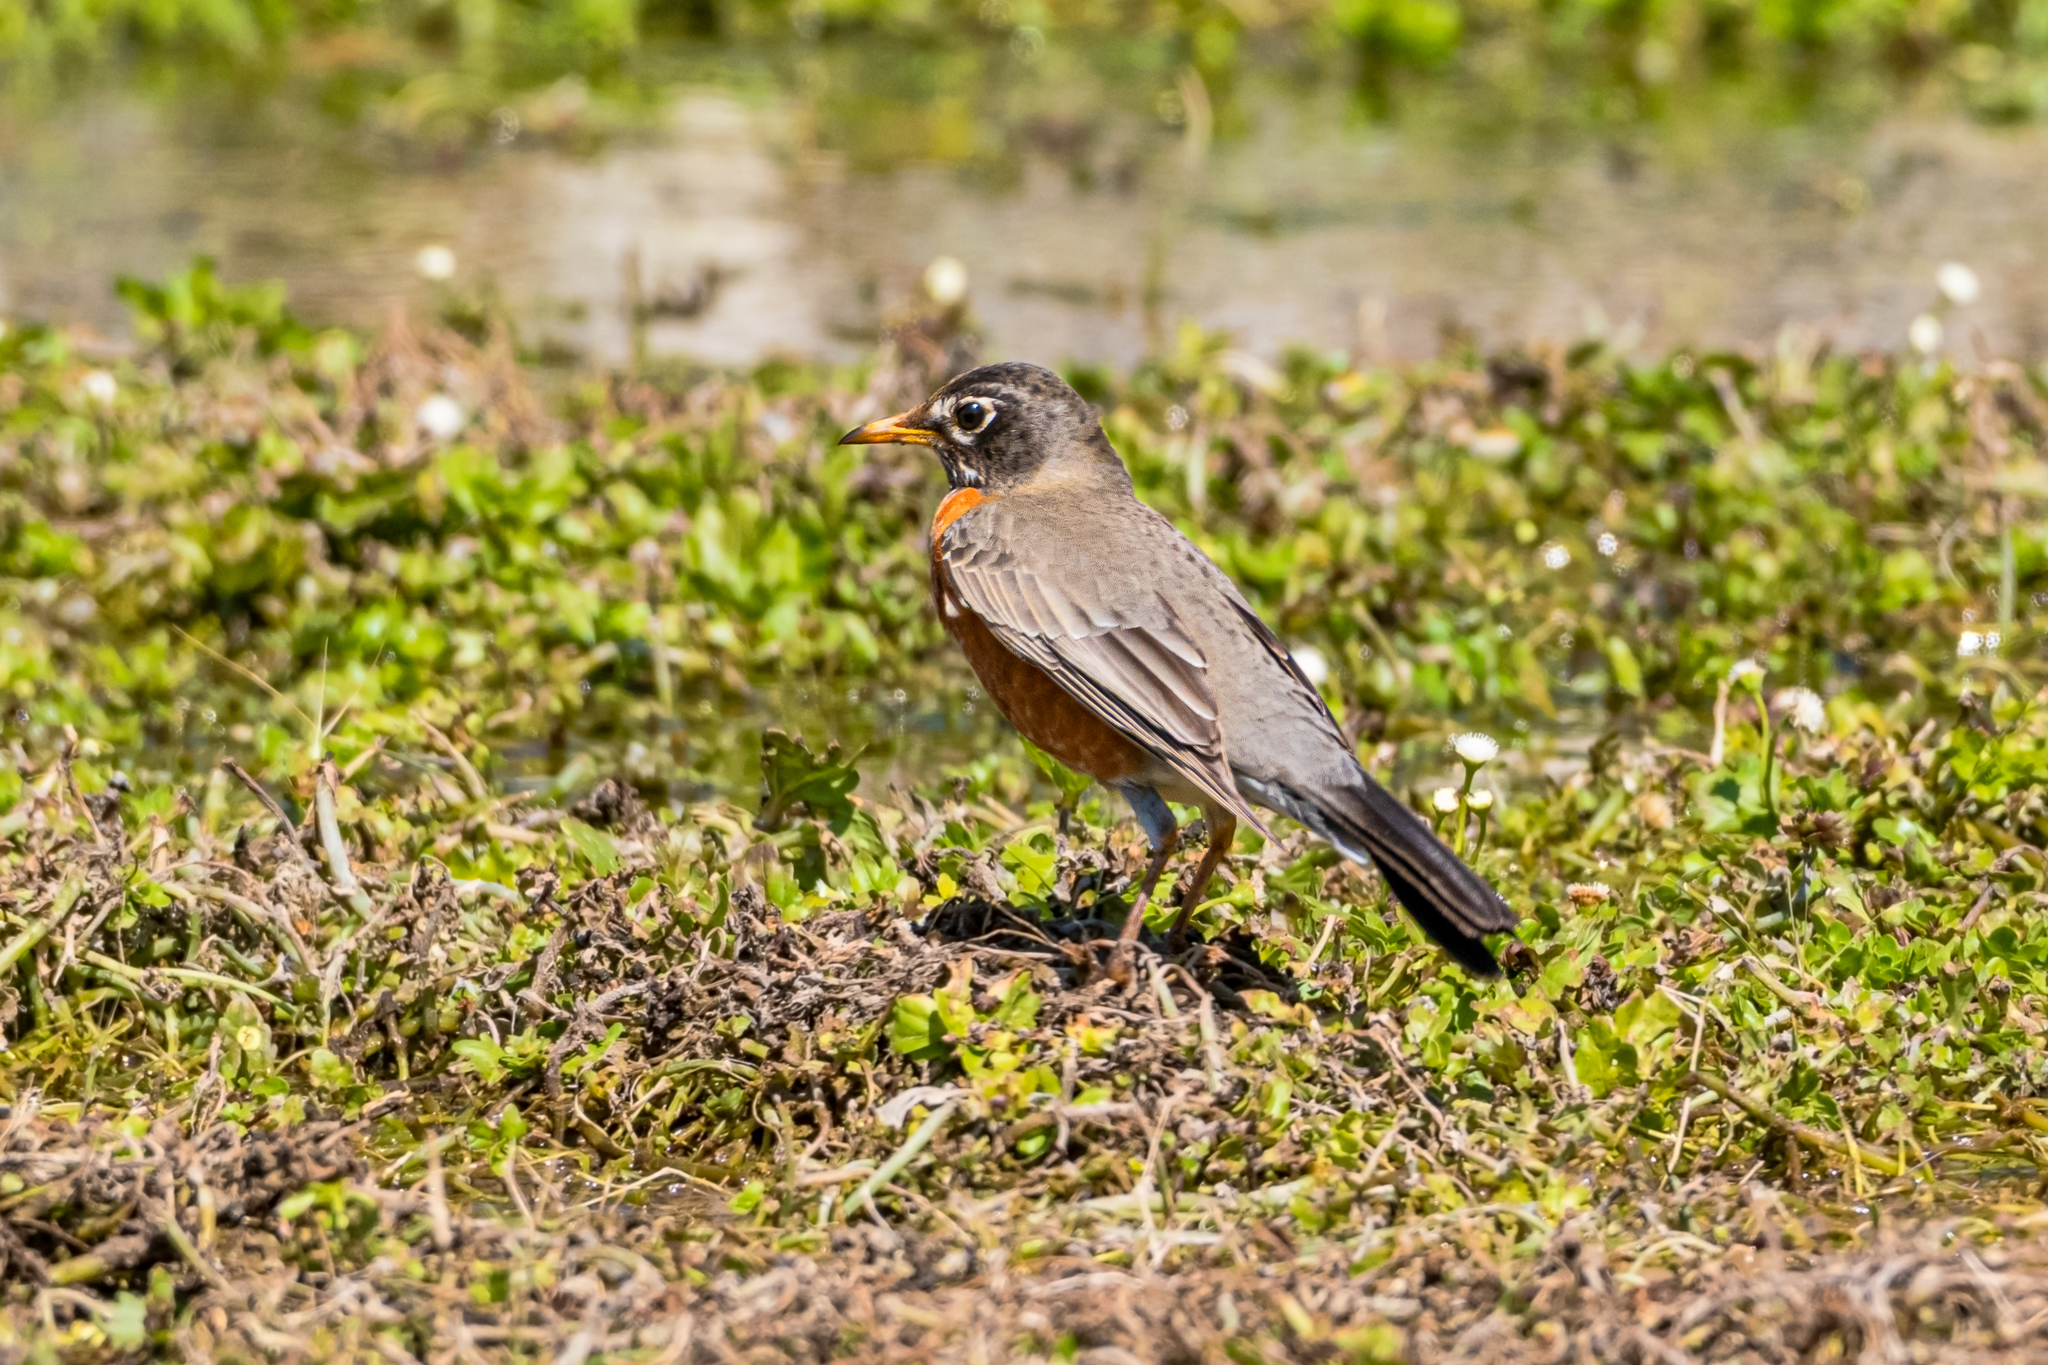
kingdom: Animalia
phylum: Chordata
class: Aves
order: Passeriformes
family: Turdidae
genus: Turdus
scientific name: Turdus migratorius
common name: American robin
